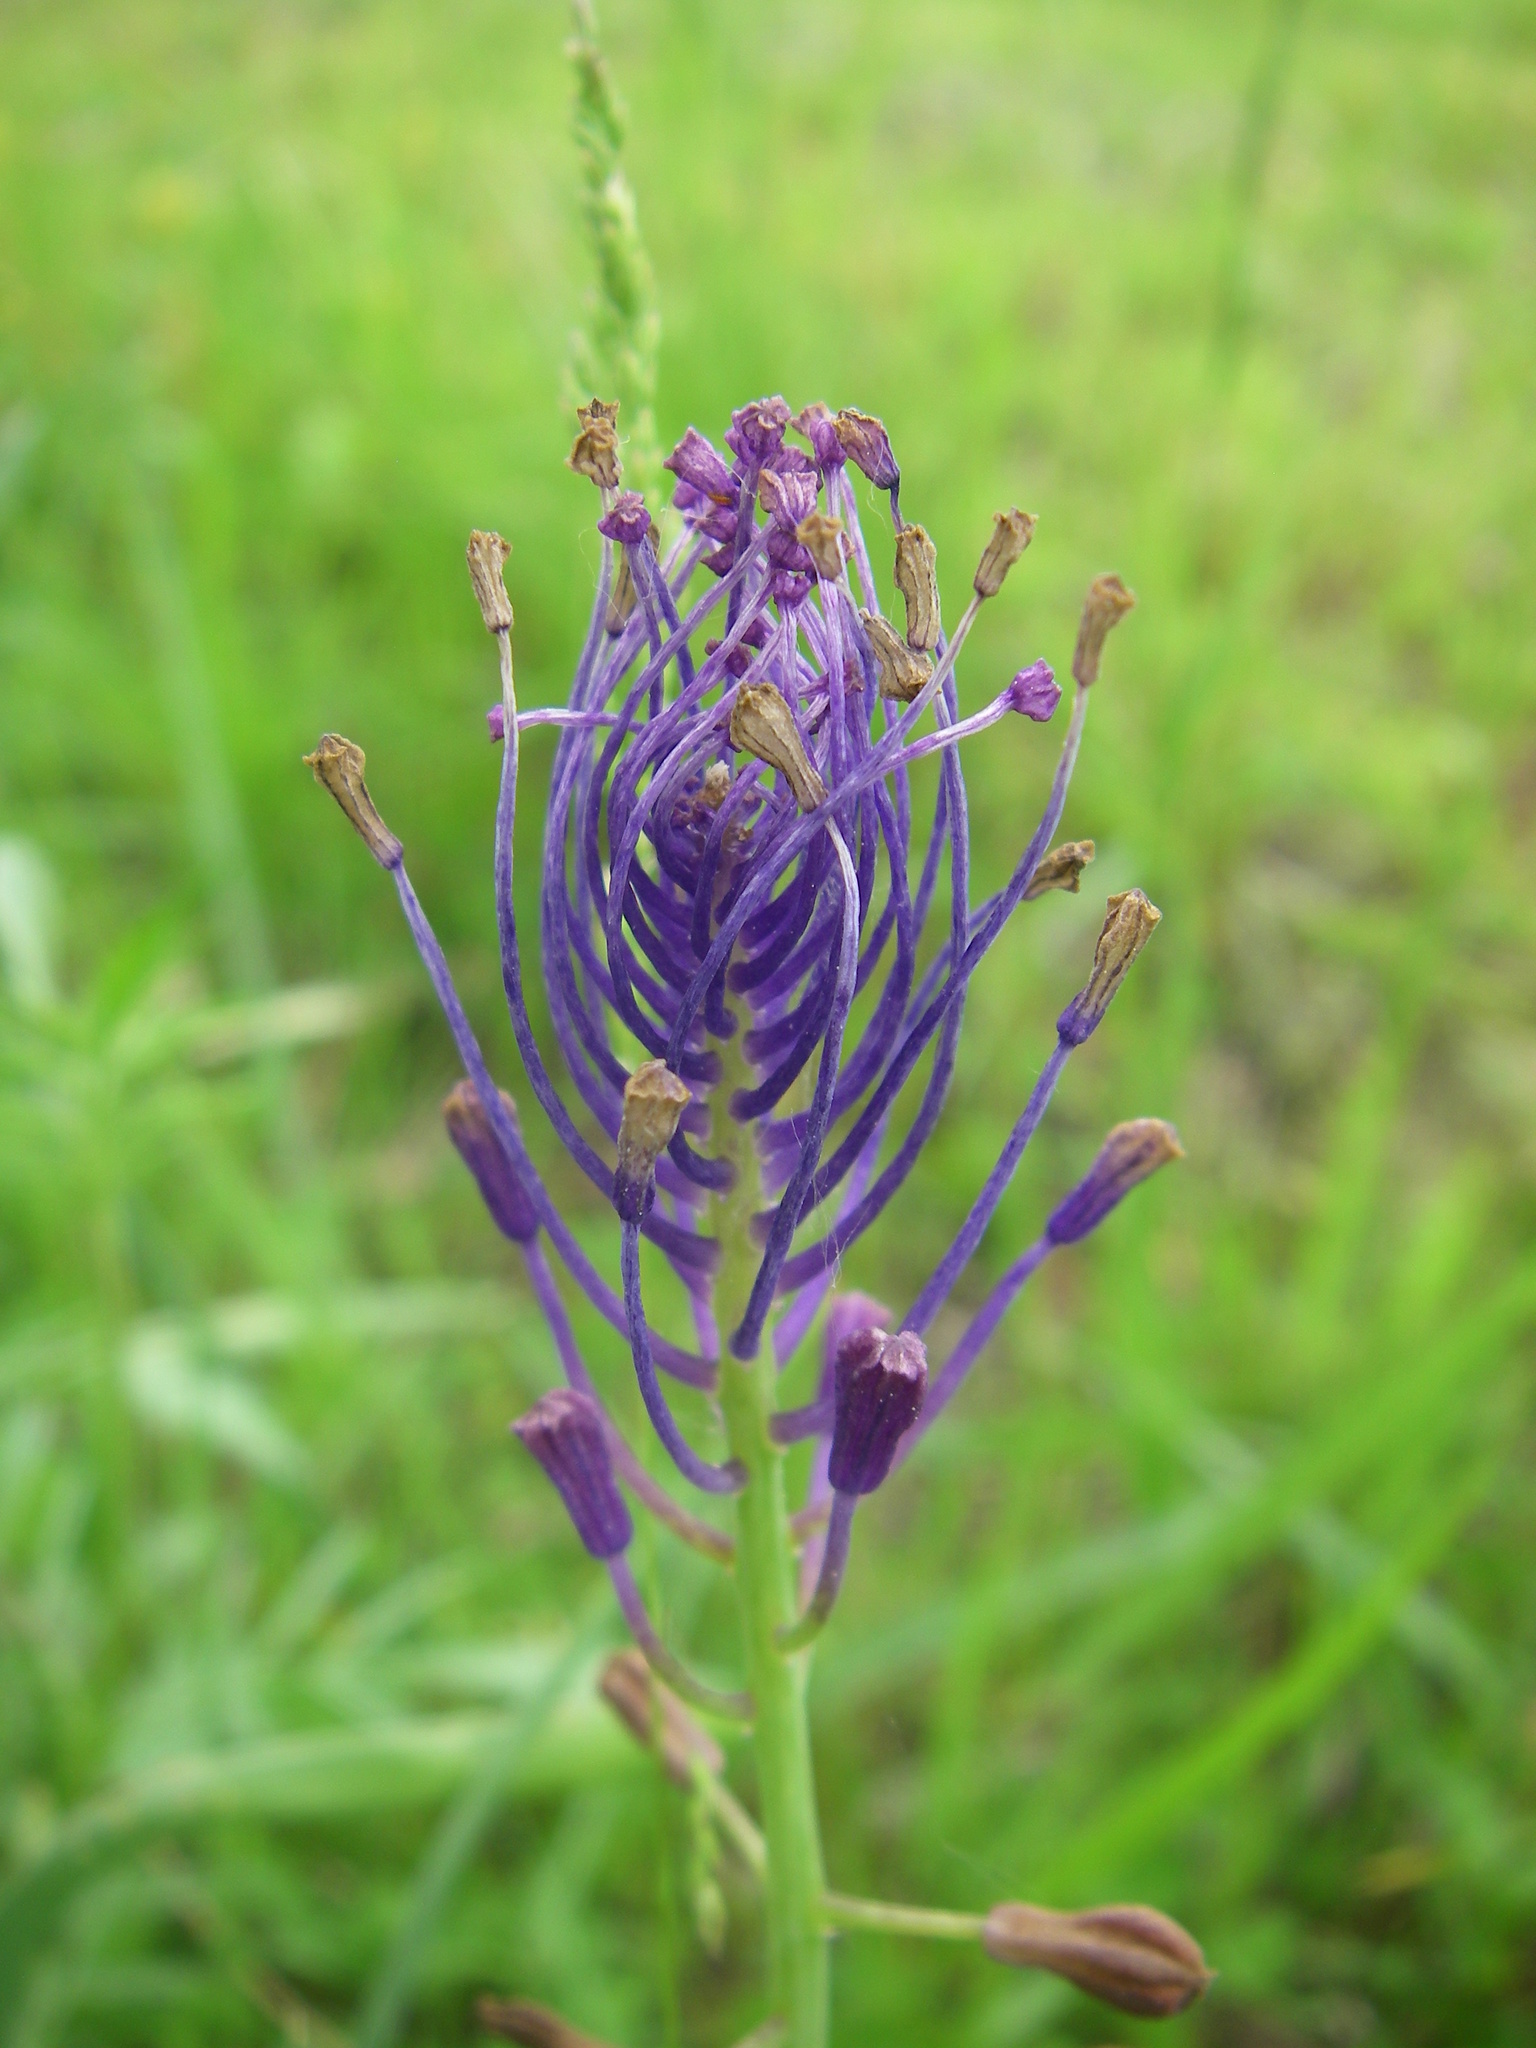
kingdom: Plantae
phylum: Tracheophyta
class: Liliopsida
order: Asparagales
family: Asparagaceae
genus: Muscari
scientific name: Muscari comosum
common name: Tassel hyacinth
